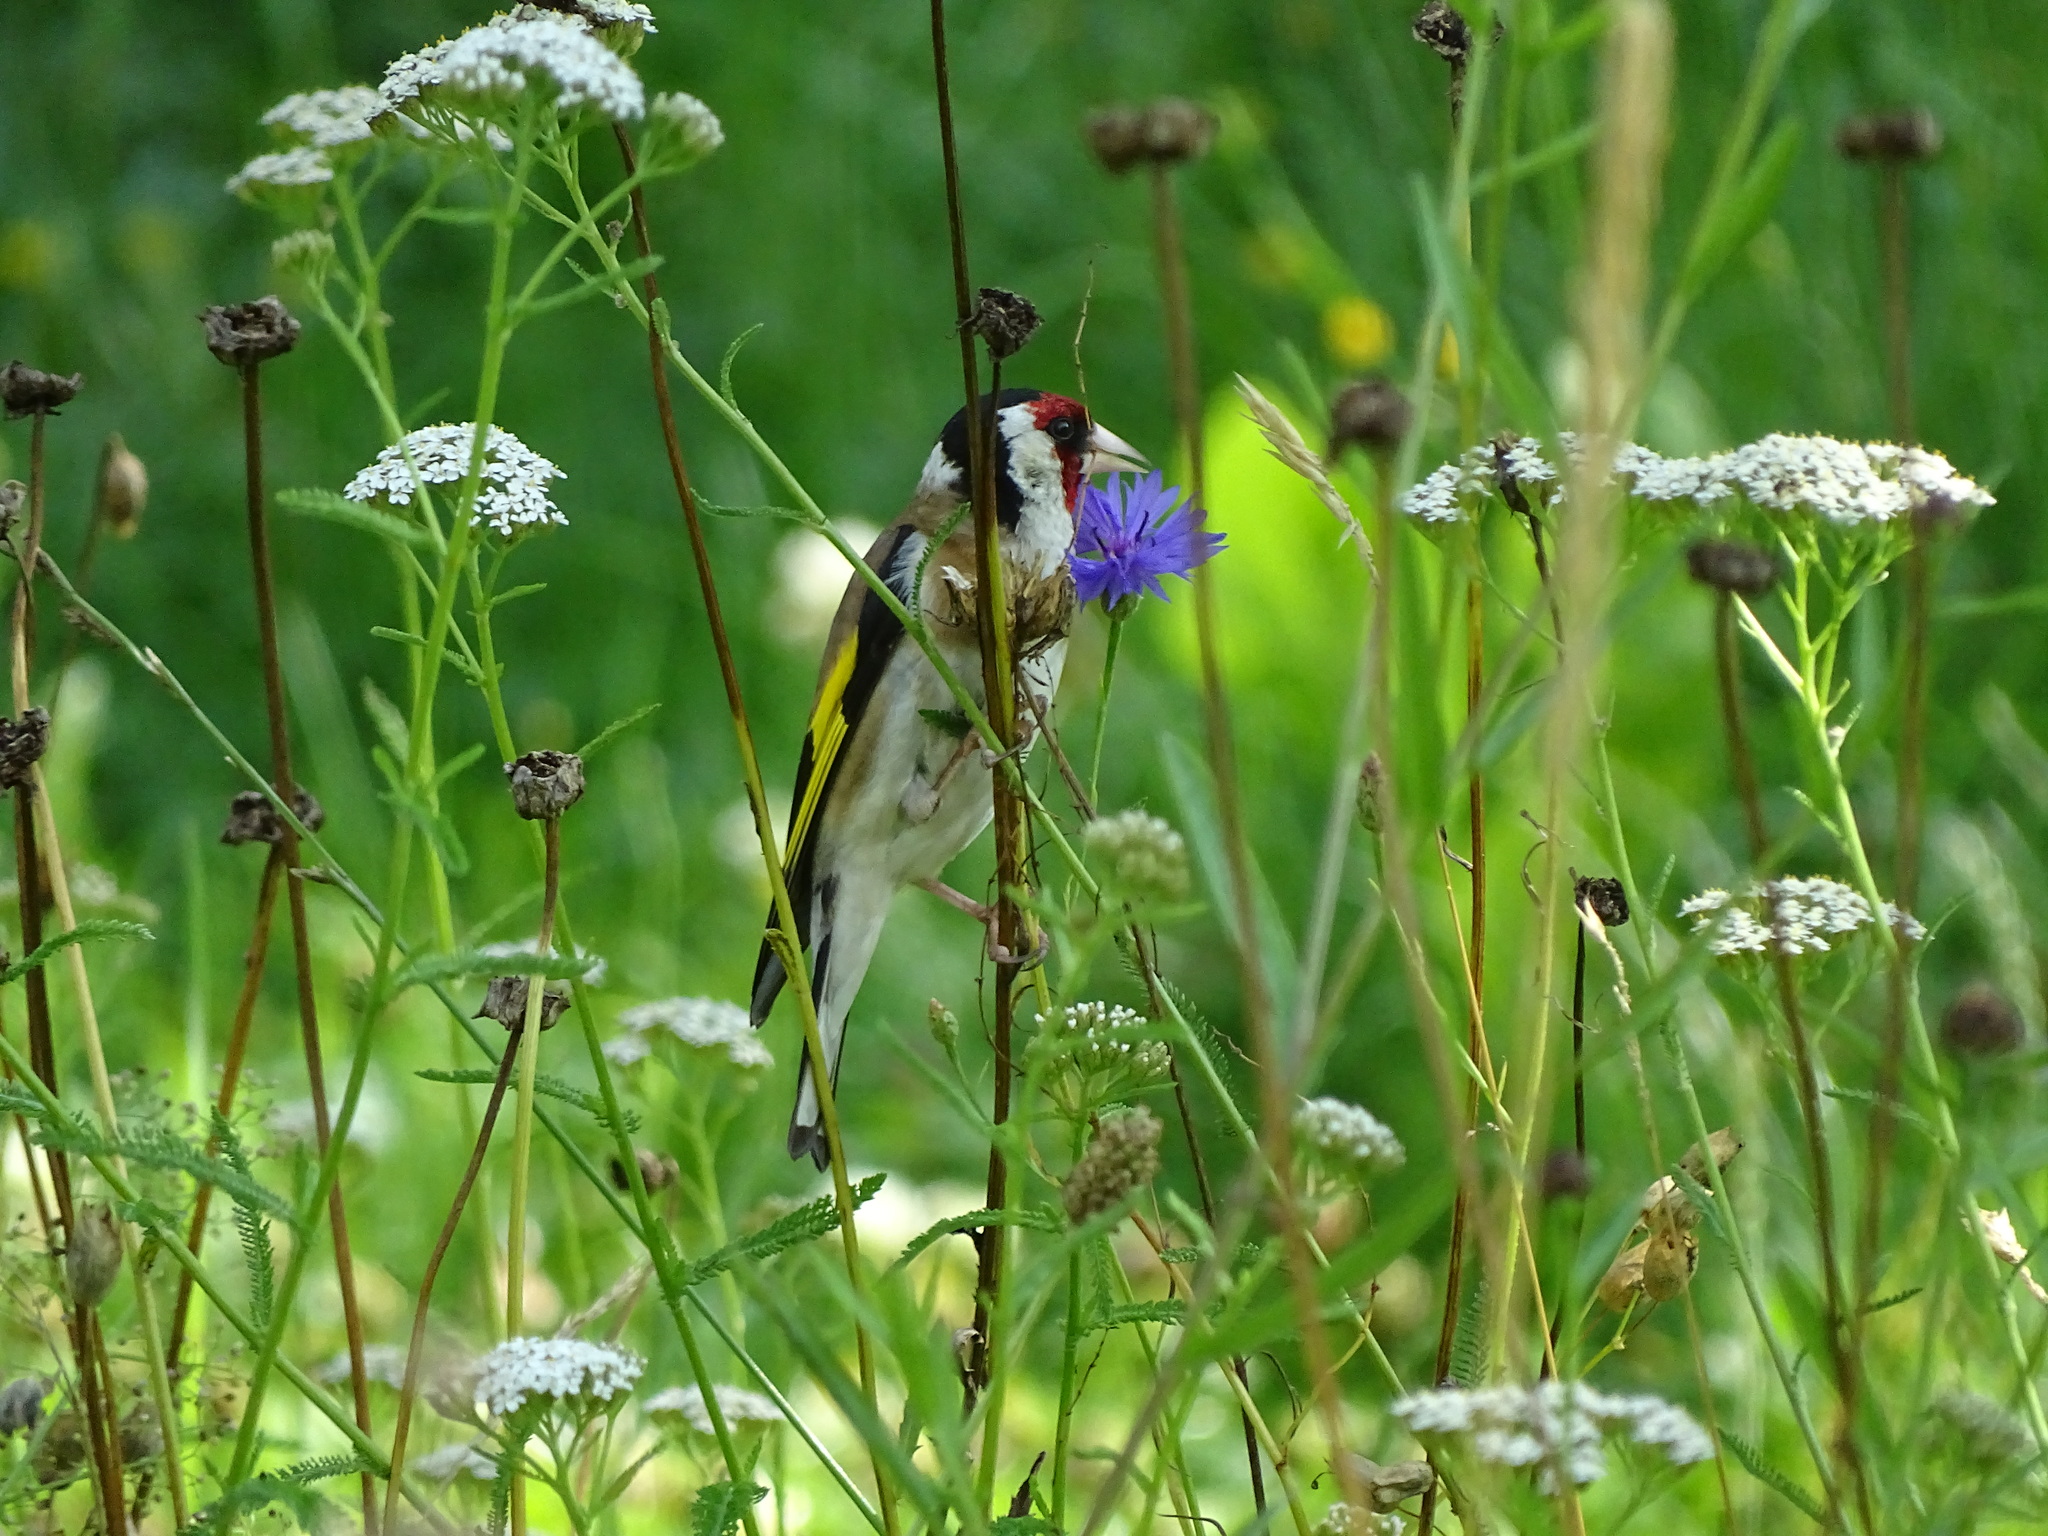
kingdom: Animalia
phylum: Chordata
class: Aves
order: Passeriformes
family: Fringillidae
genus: Carduelis
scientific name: Carduelis carduelis
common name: European goldfinch
